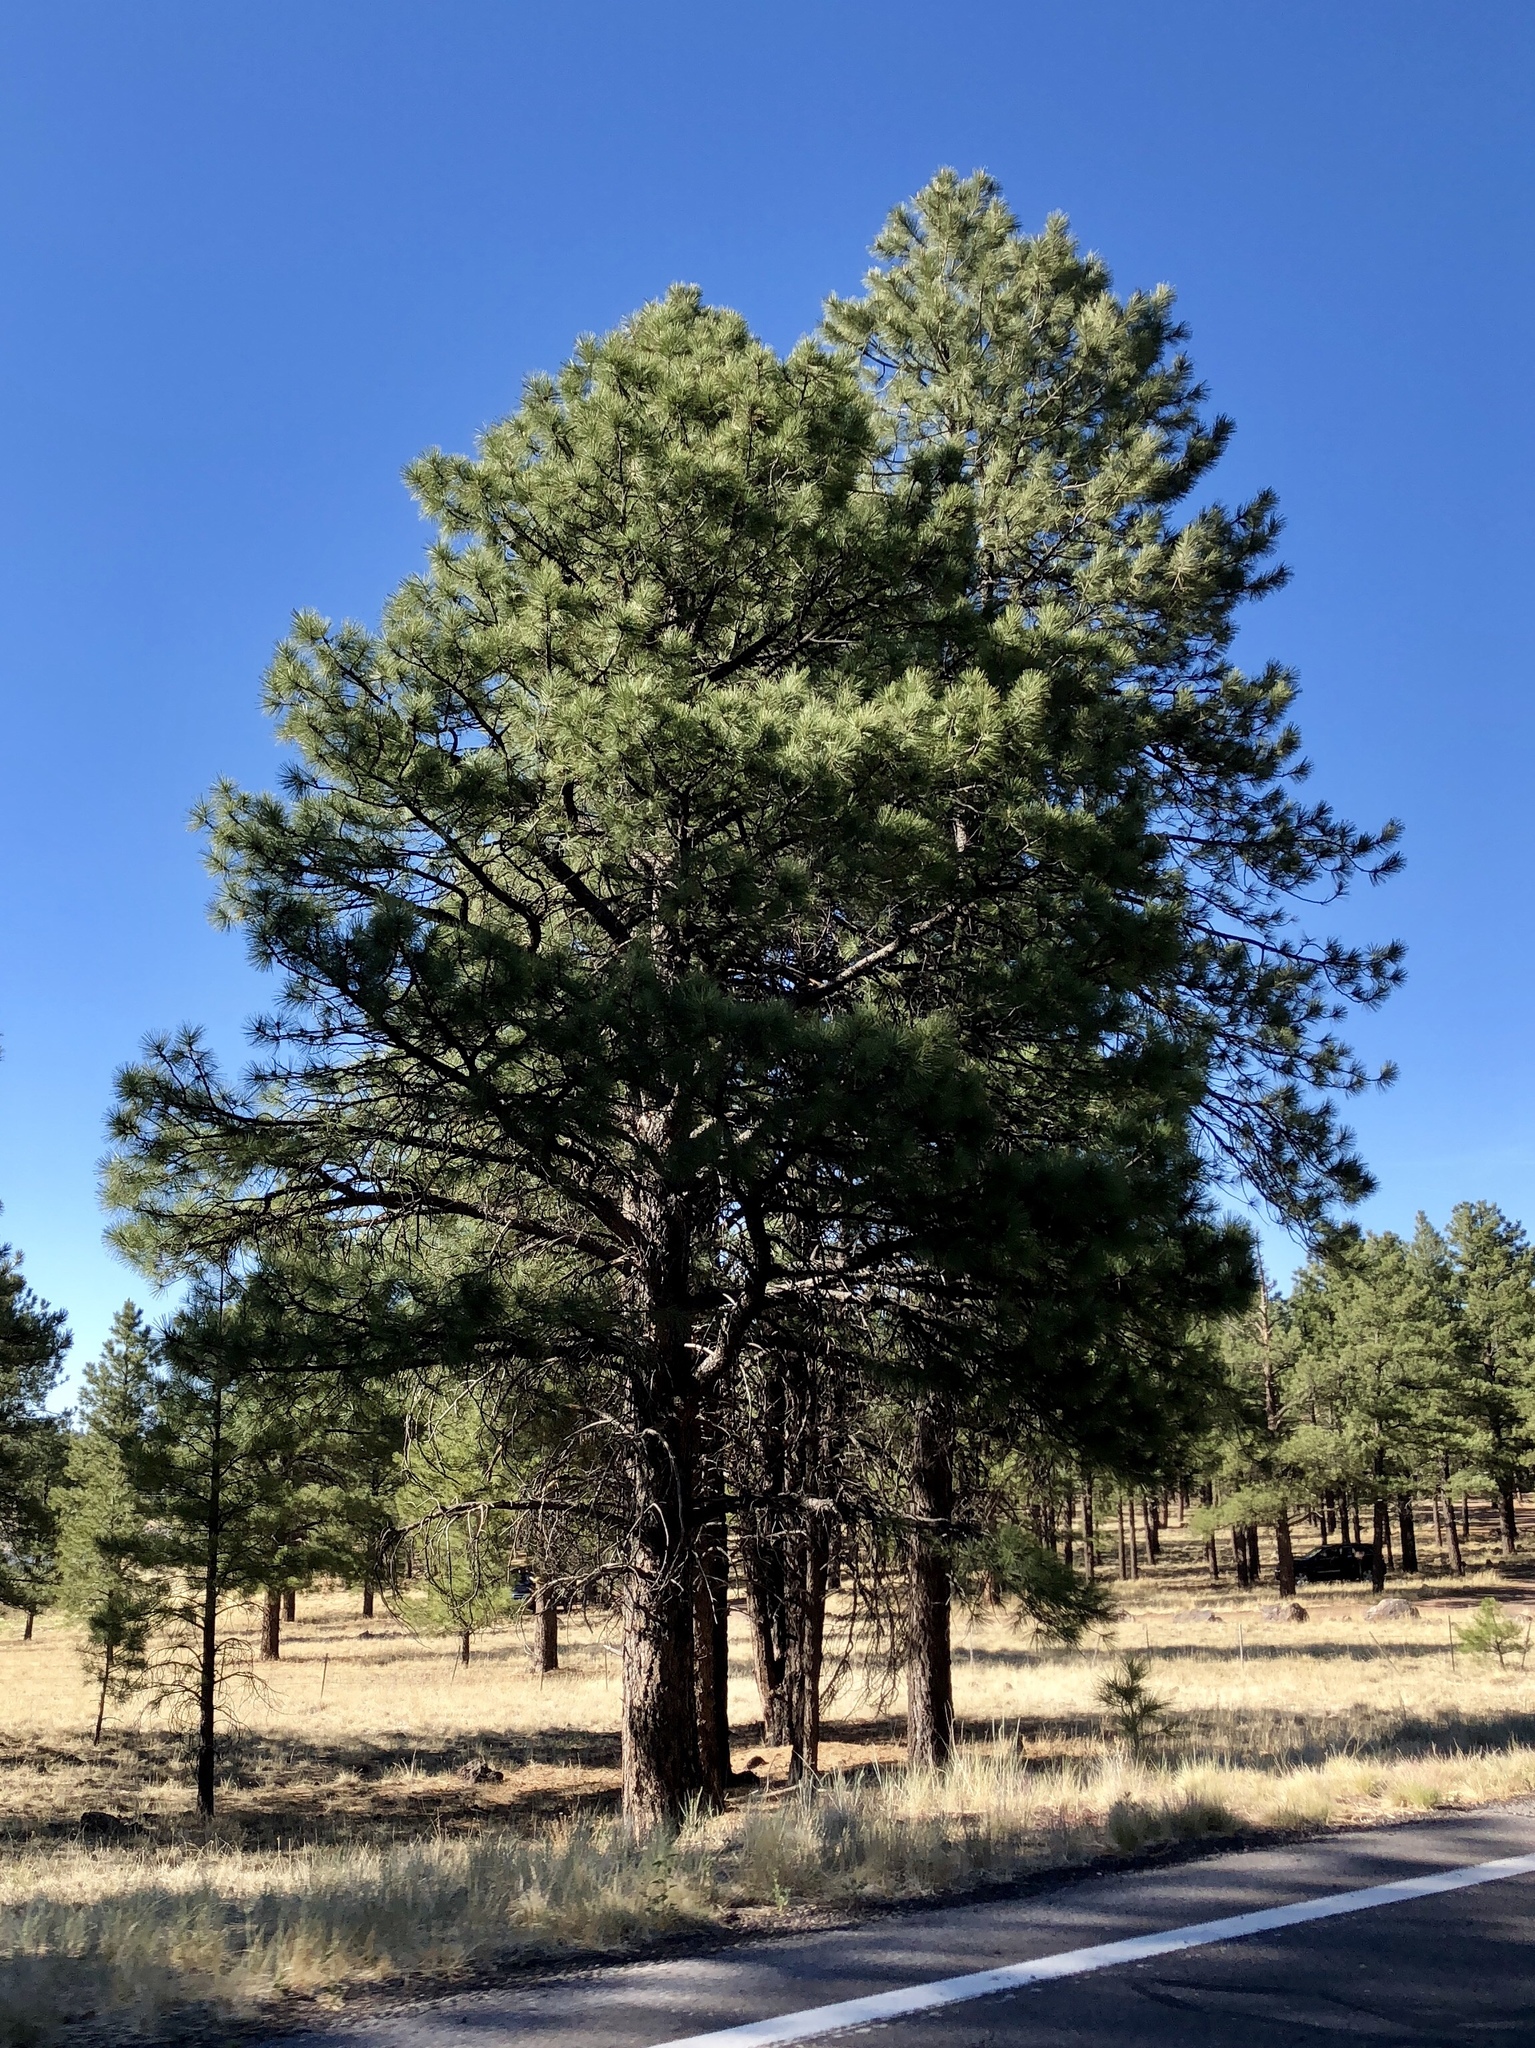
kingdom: Plantae
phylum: Tracheophyta
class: Pinopsida
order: Pinales
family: Pinaceae
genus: Pinus
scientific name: Pinus ponderosa
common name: Western yellow-pine
